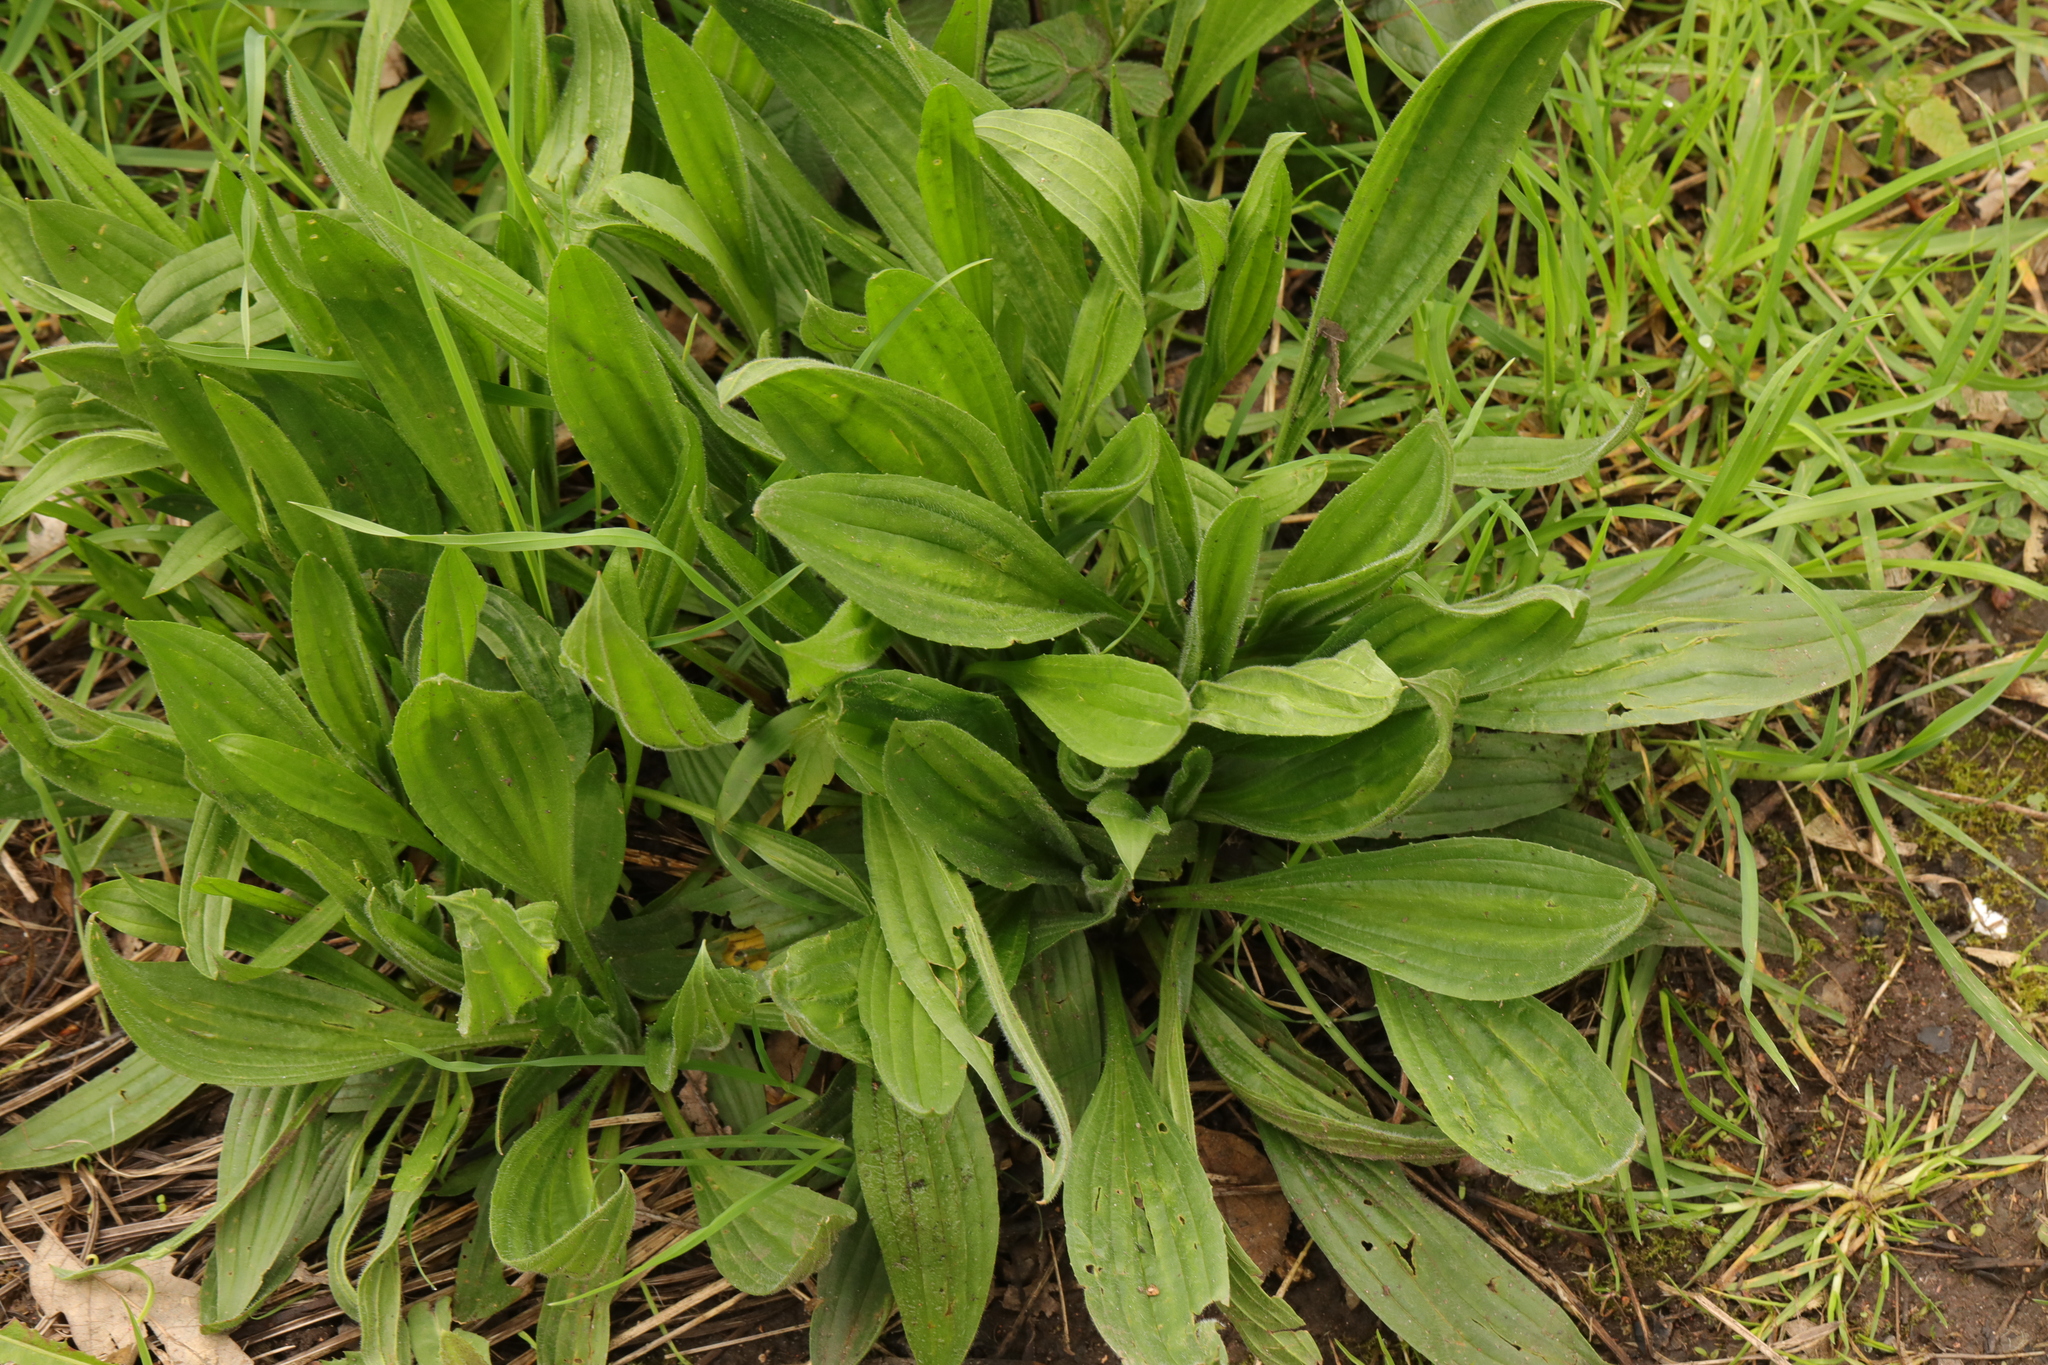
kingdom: Plantae
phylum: Tracheophyta
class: Magnoliopsida
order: Lamiales
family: Plantaginaceae
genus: Plantago
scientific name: Plantago lanceolata
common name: Ribwort plantain
